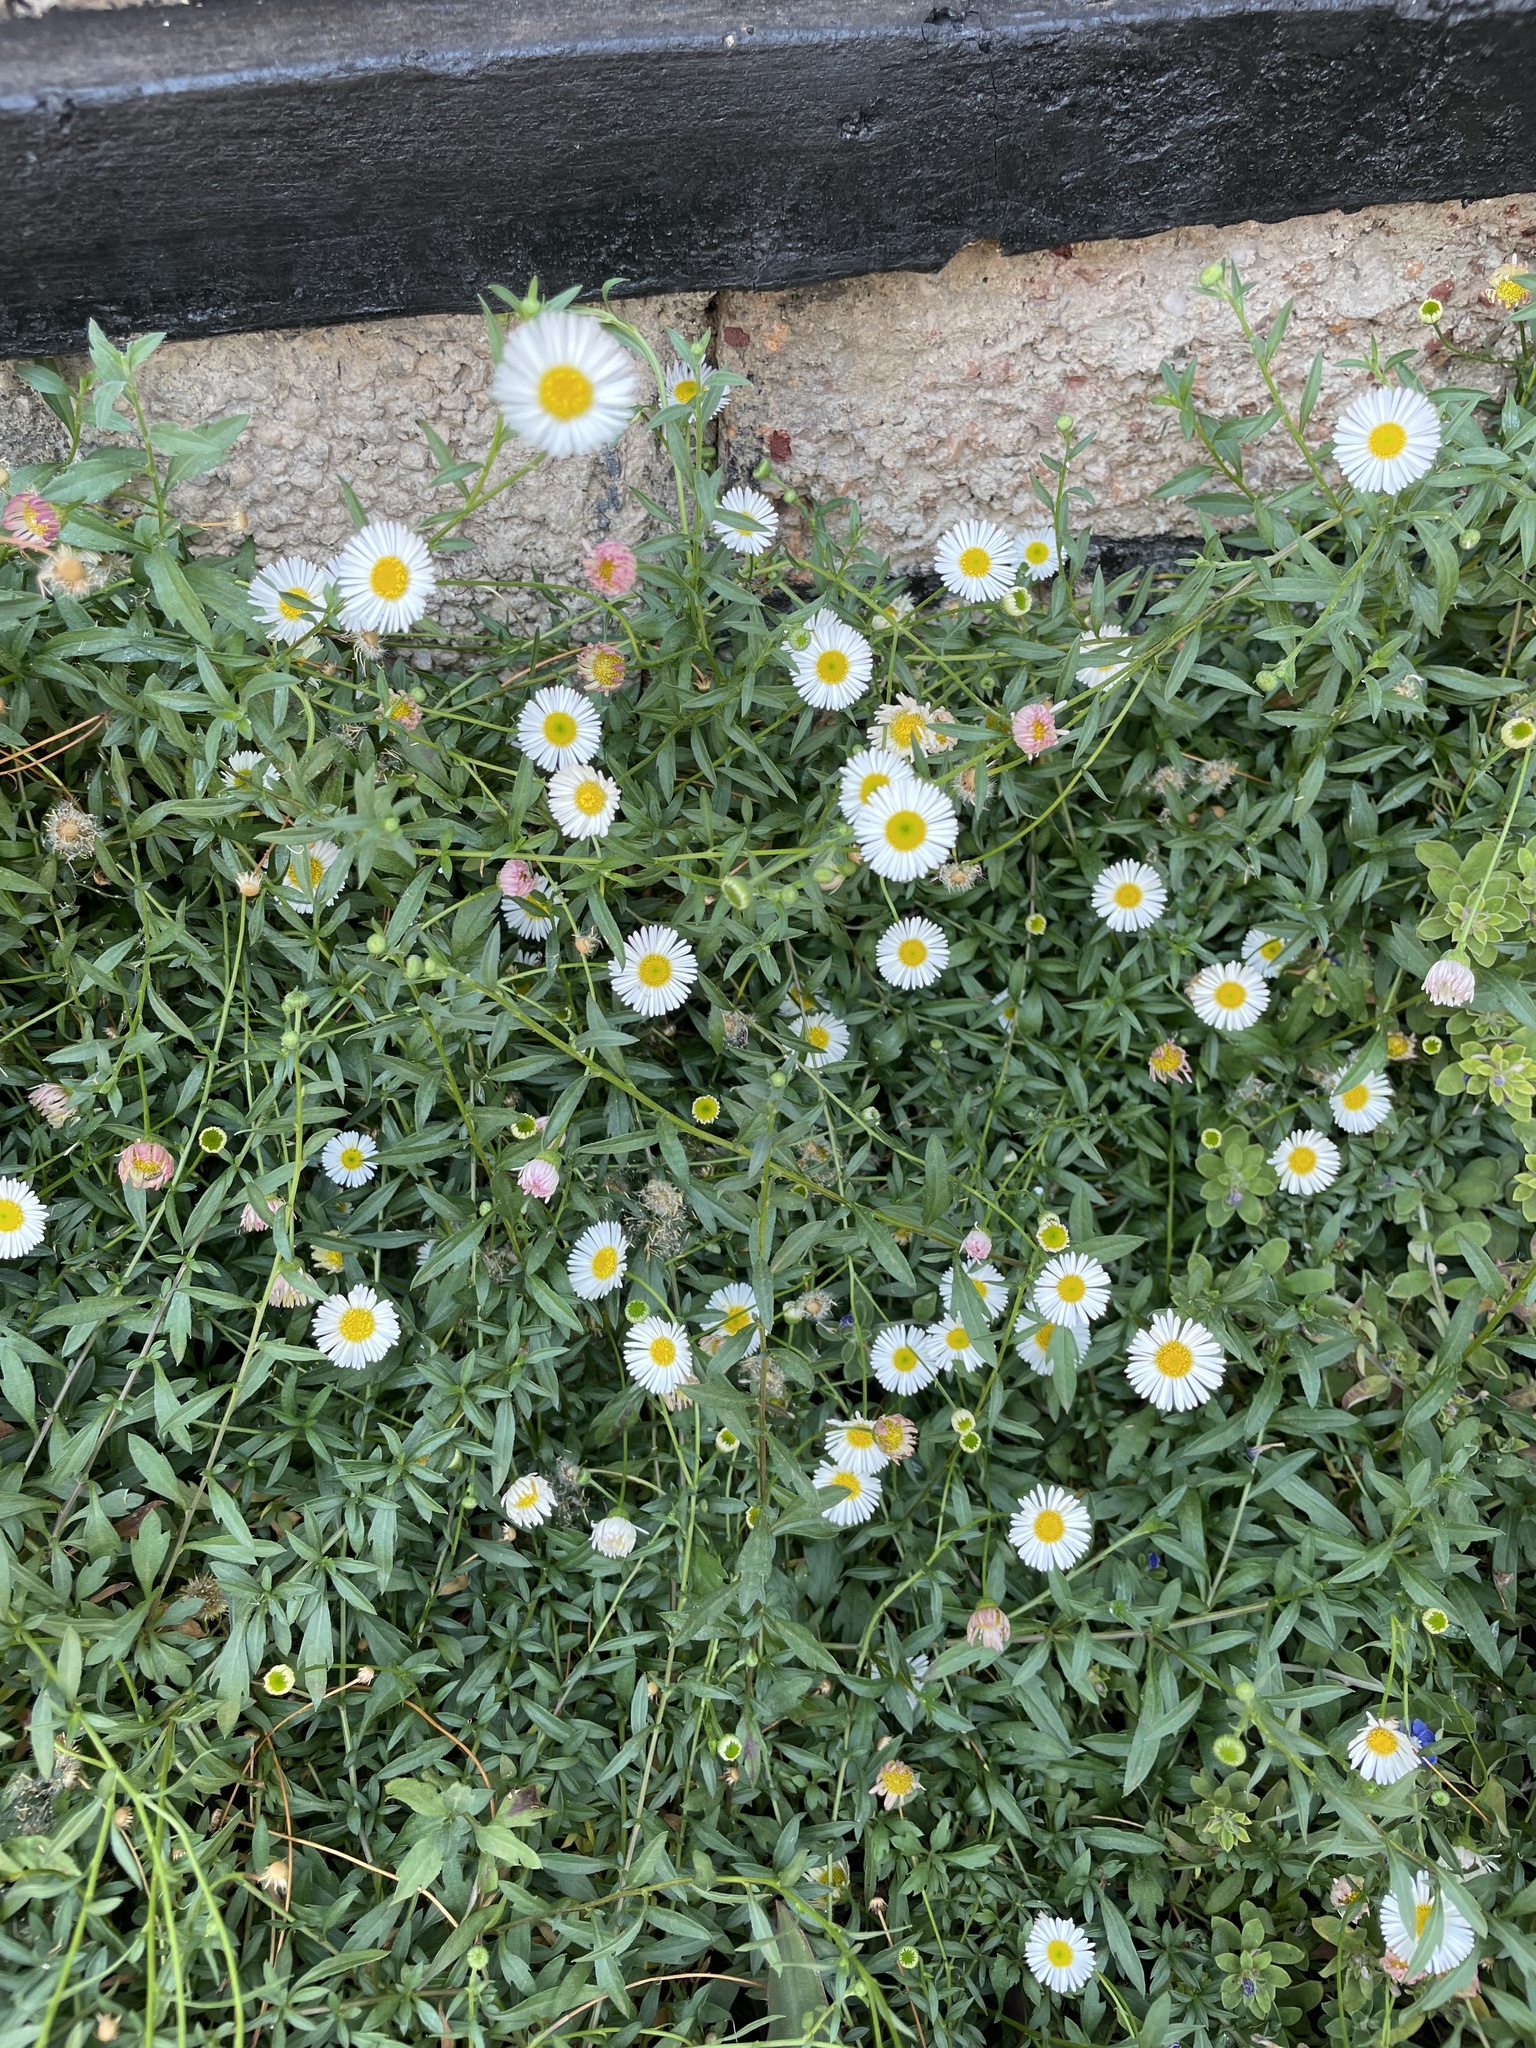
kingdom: Plantae
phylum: Tracheophyta
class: Magnoliopsida
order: Asterales
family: Asteraceae
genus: Erigeron
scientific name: Erigeron karvinskianus
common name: Mexican fleabane
